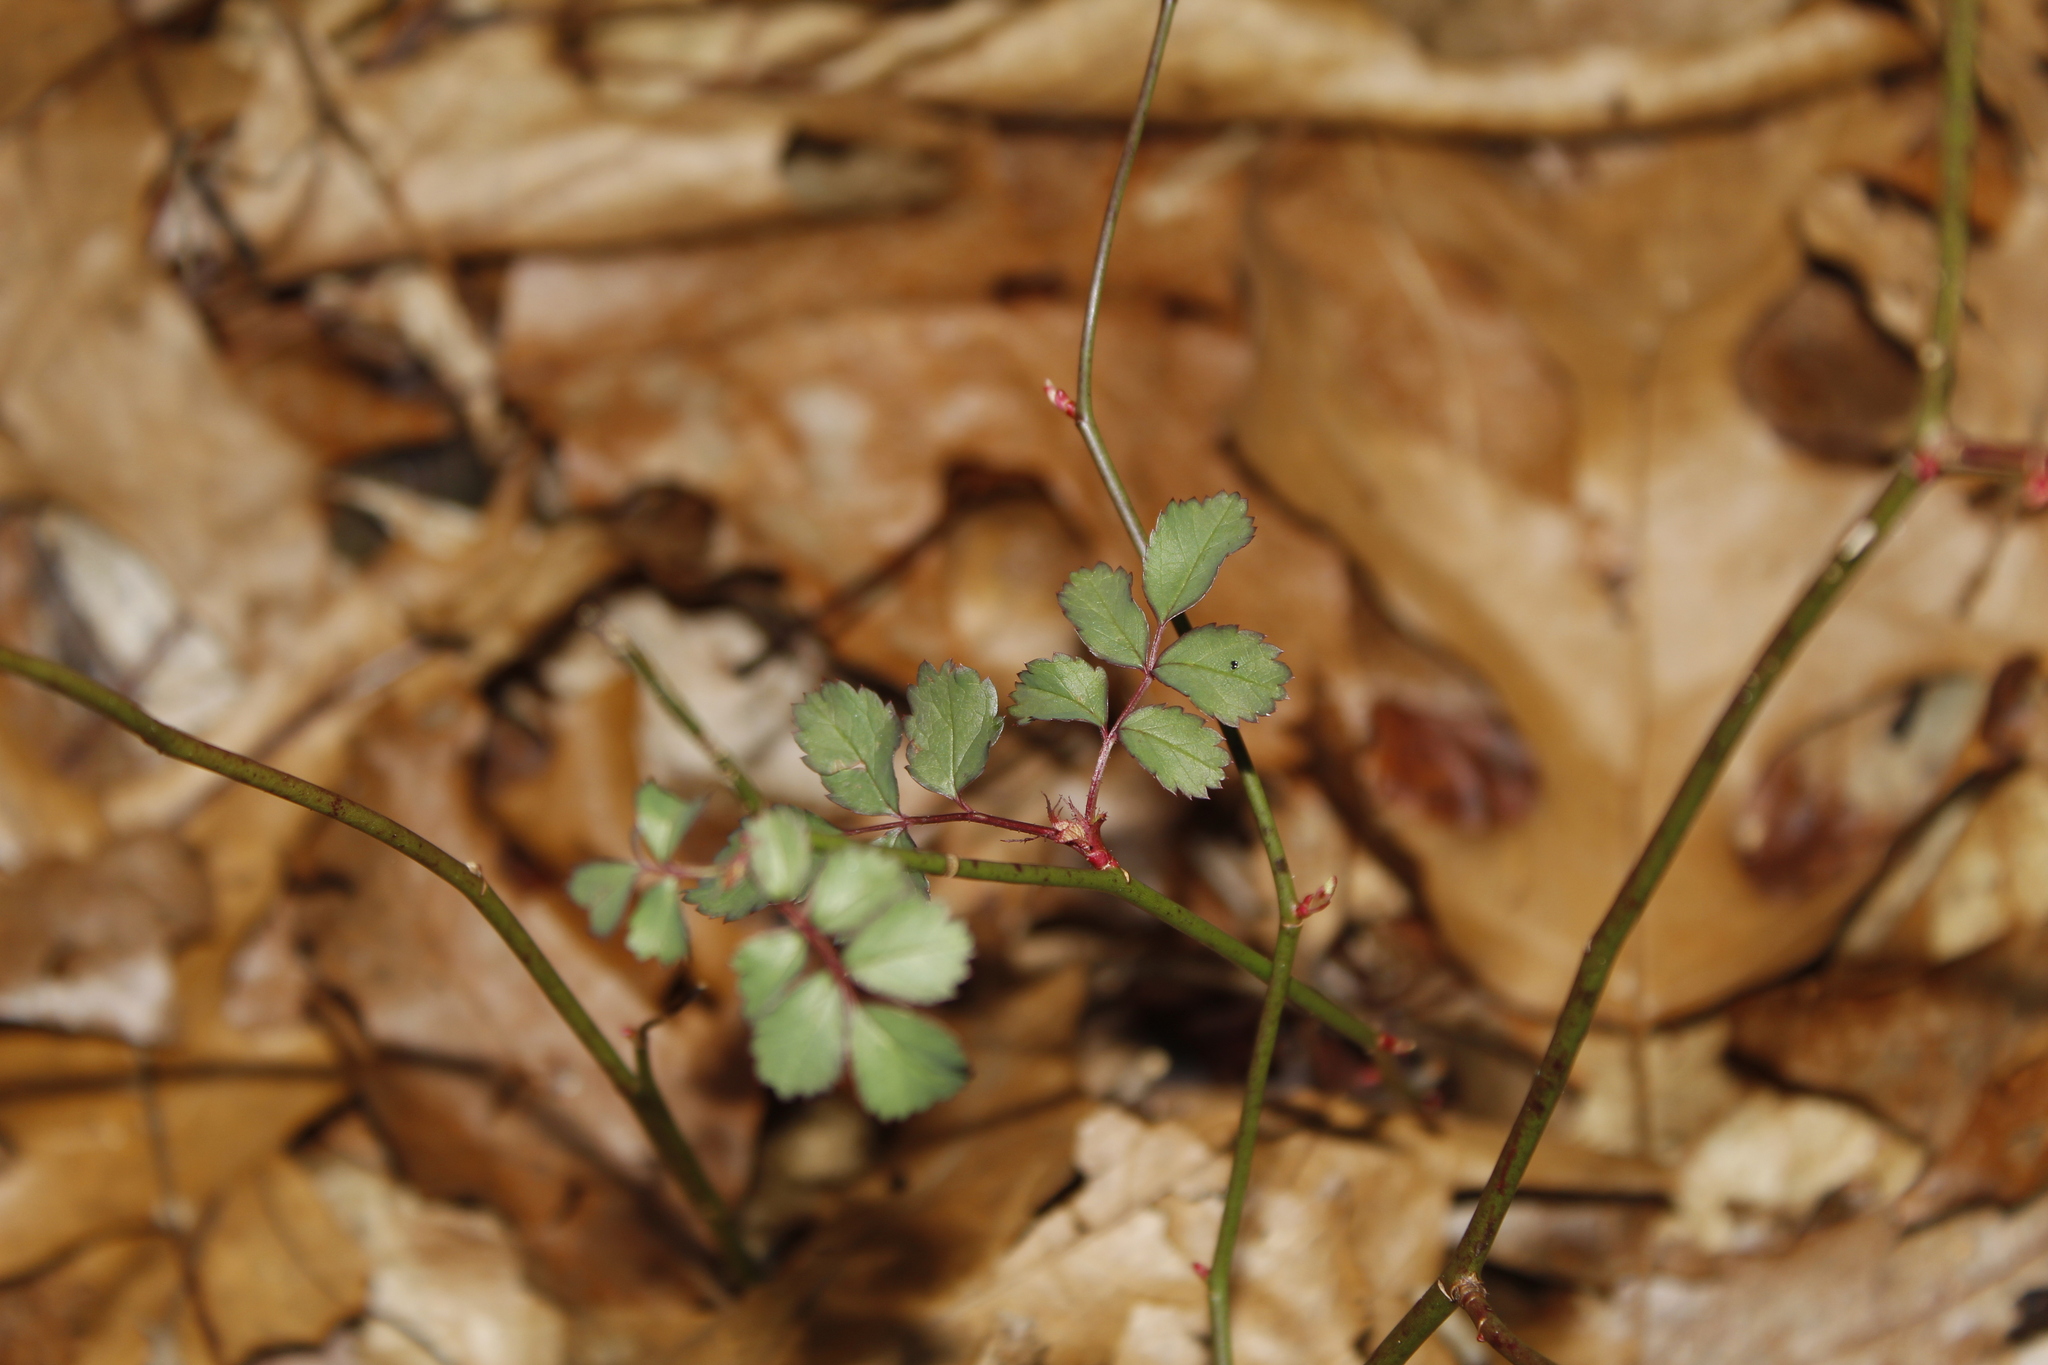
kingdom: Plantae
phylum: Tracheophyta
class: Magnoliopsida
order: Rosales
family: Rosaceae
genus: Rosa
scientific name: Rosa multiflora
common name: Multiflora rose
